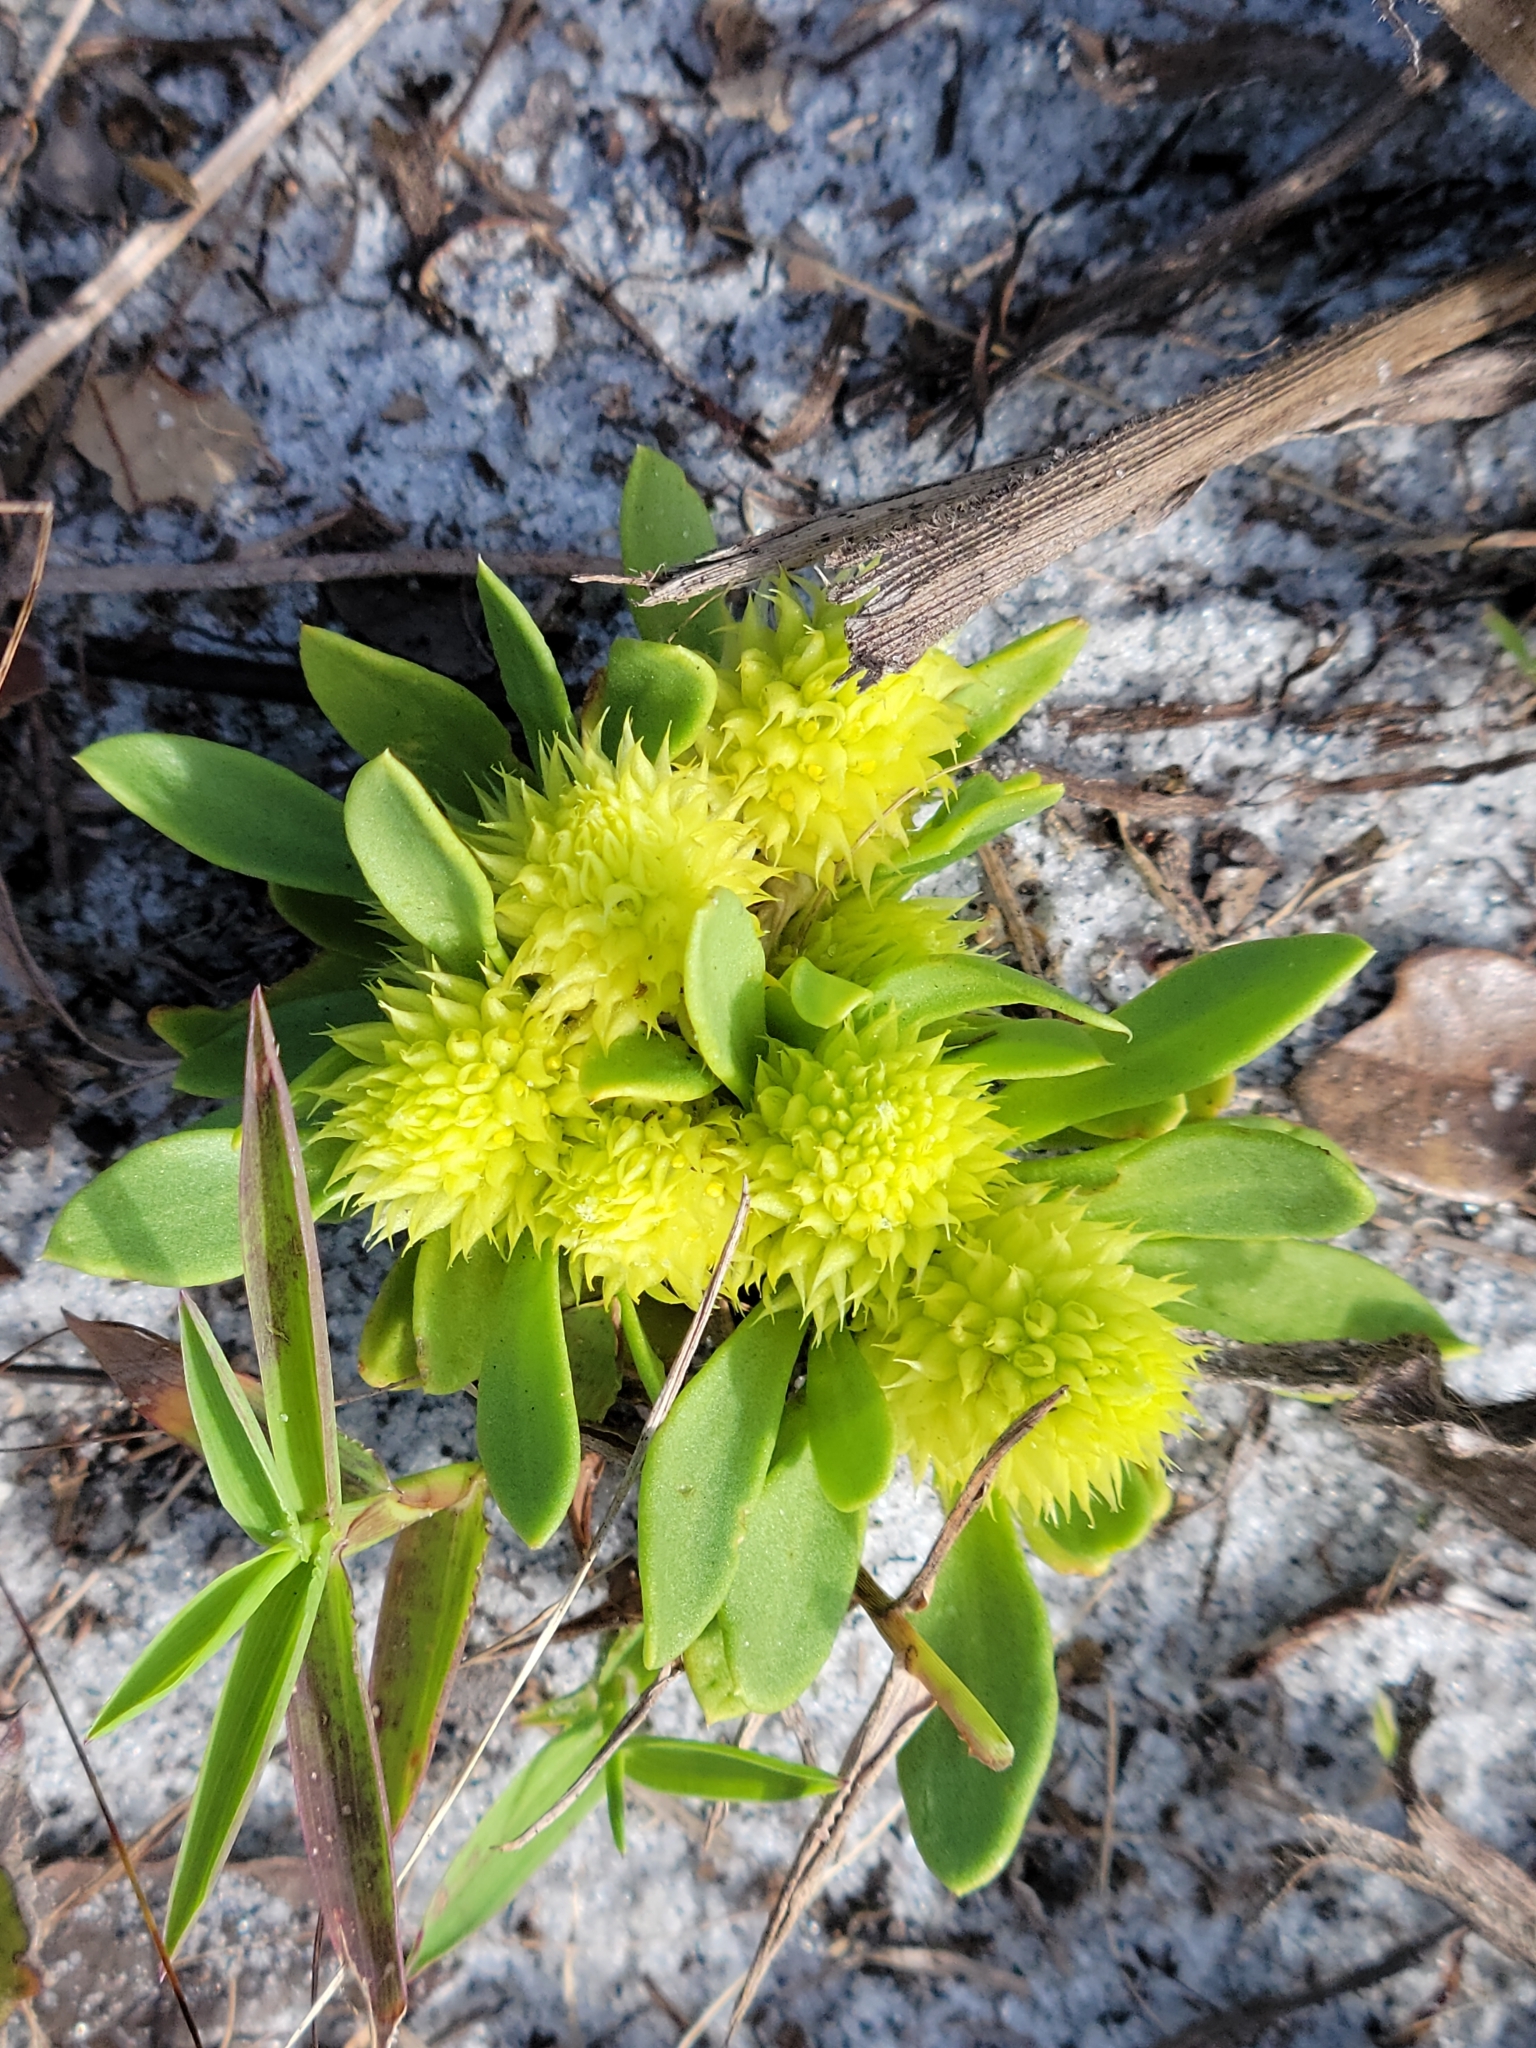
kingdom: Plantae
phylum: Tracheophyta
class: Magnoliopsida
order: Fabales
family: Polygalaceae
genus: Polygala
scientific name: Polygala nana
